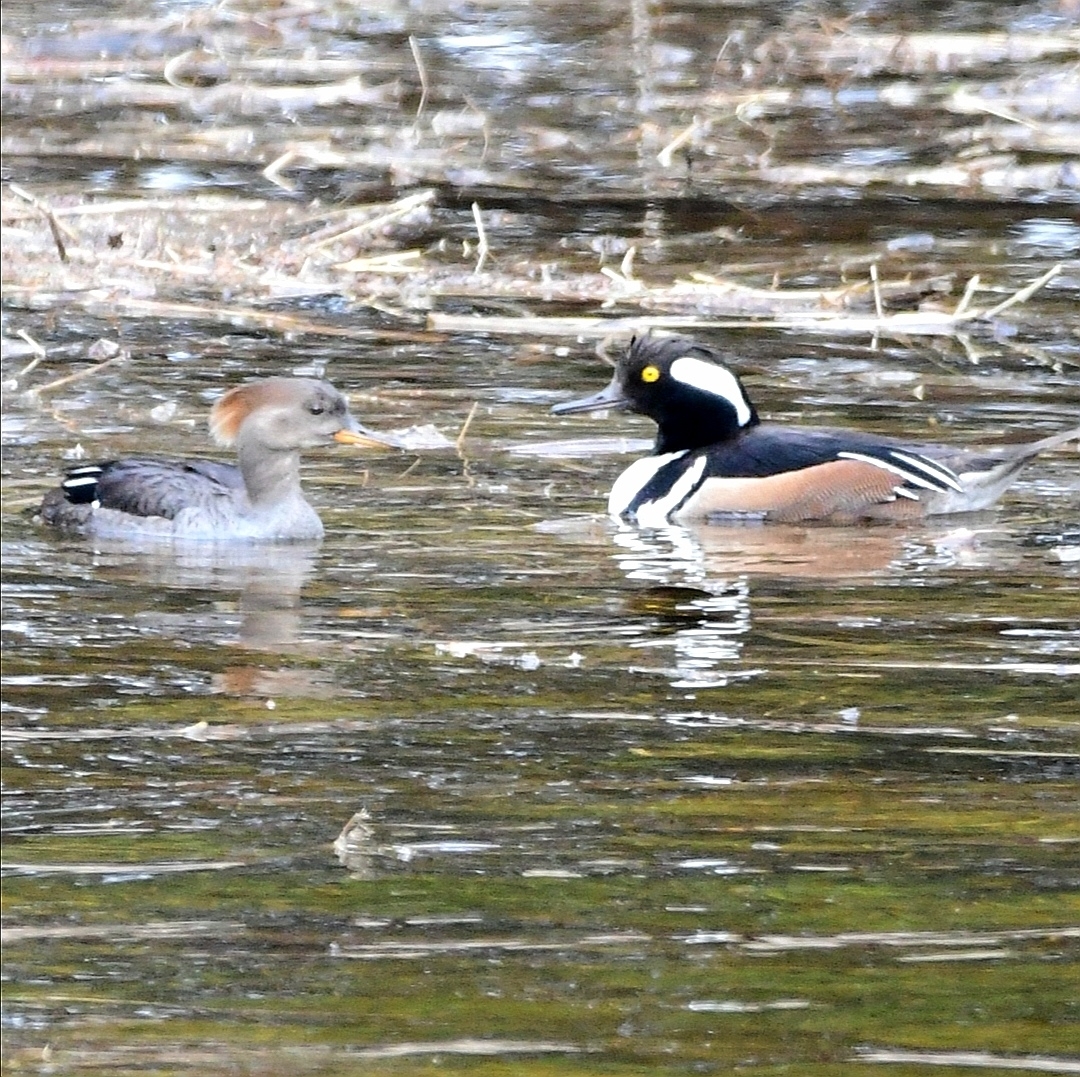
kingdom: Animalia
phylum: Chordata
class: Aves
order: Anseriformes
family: Anatidae
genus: Lophodytes
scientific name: Lophodytes cucullatus
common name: Hooded merganser
